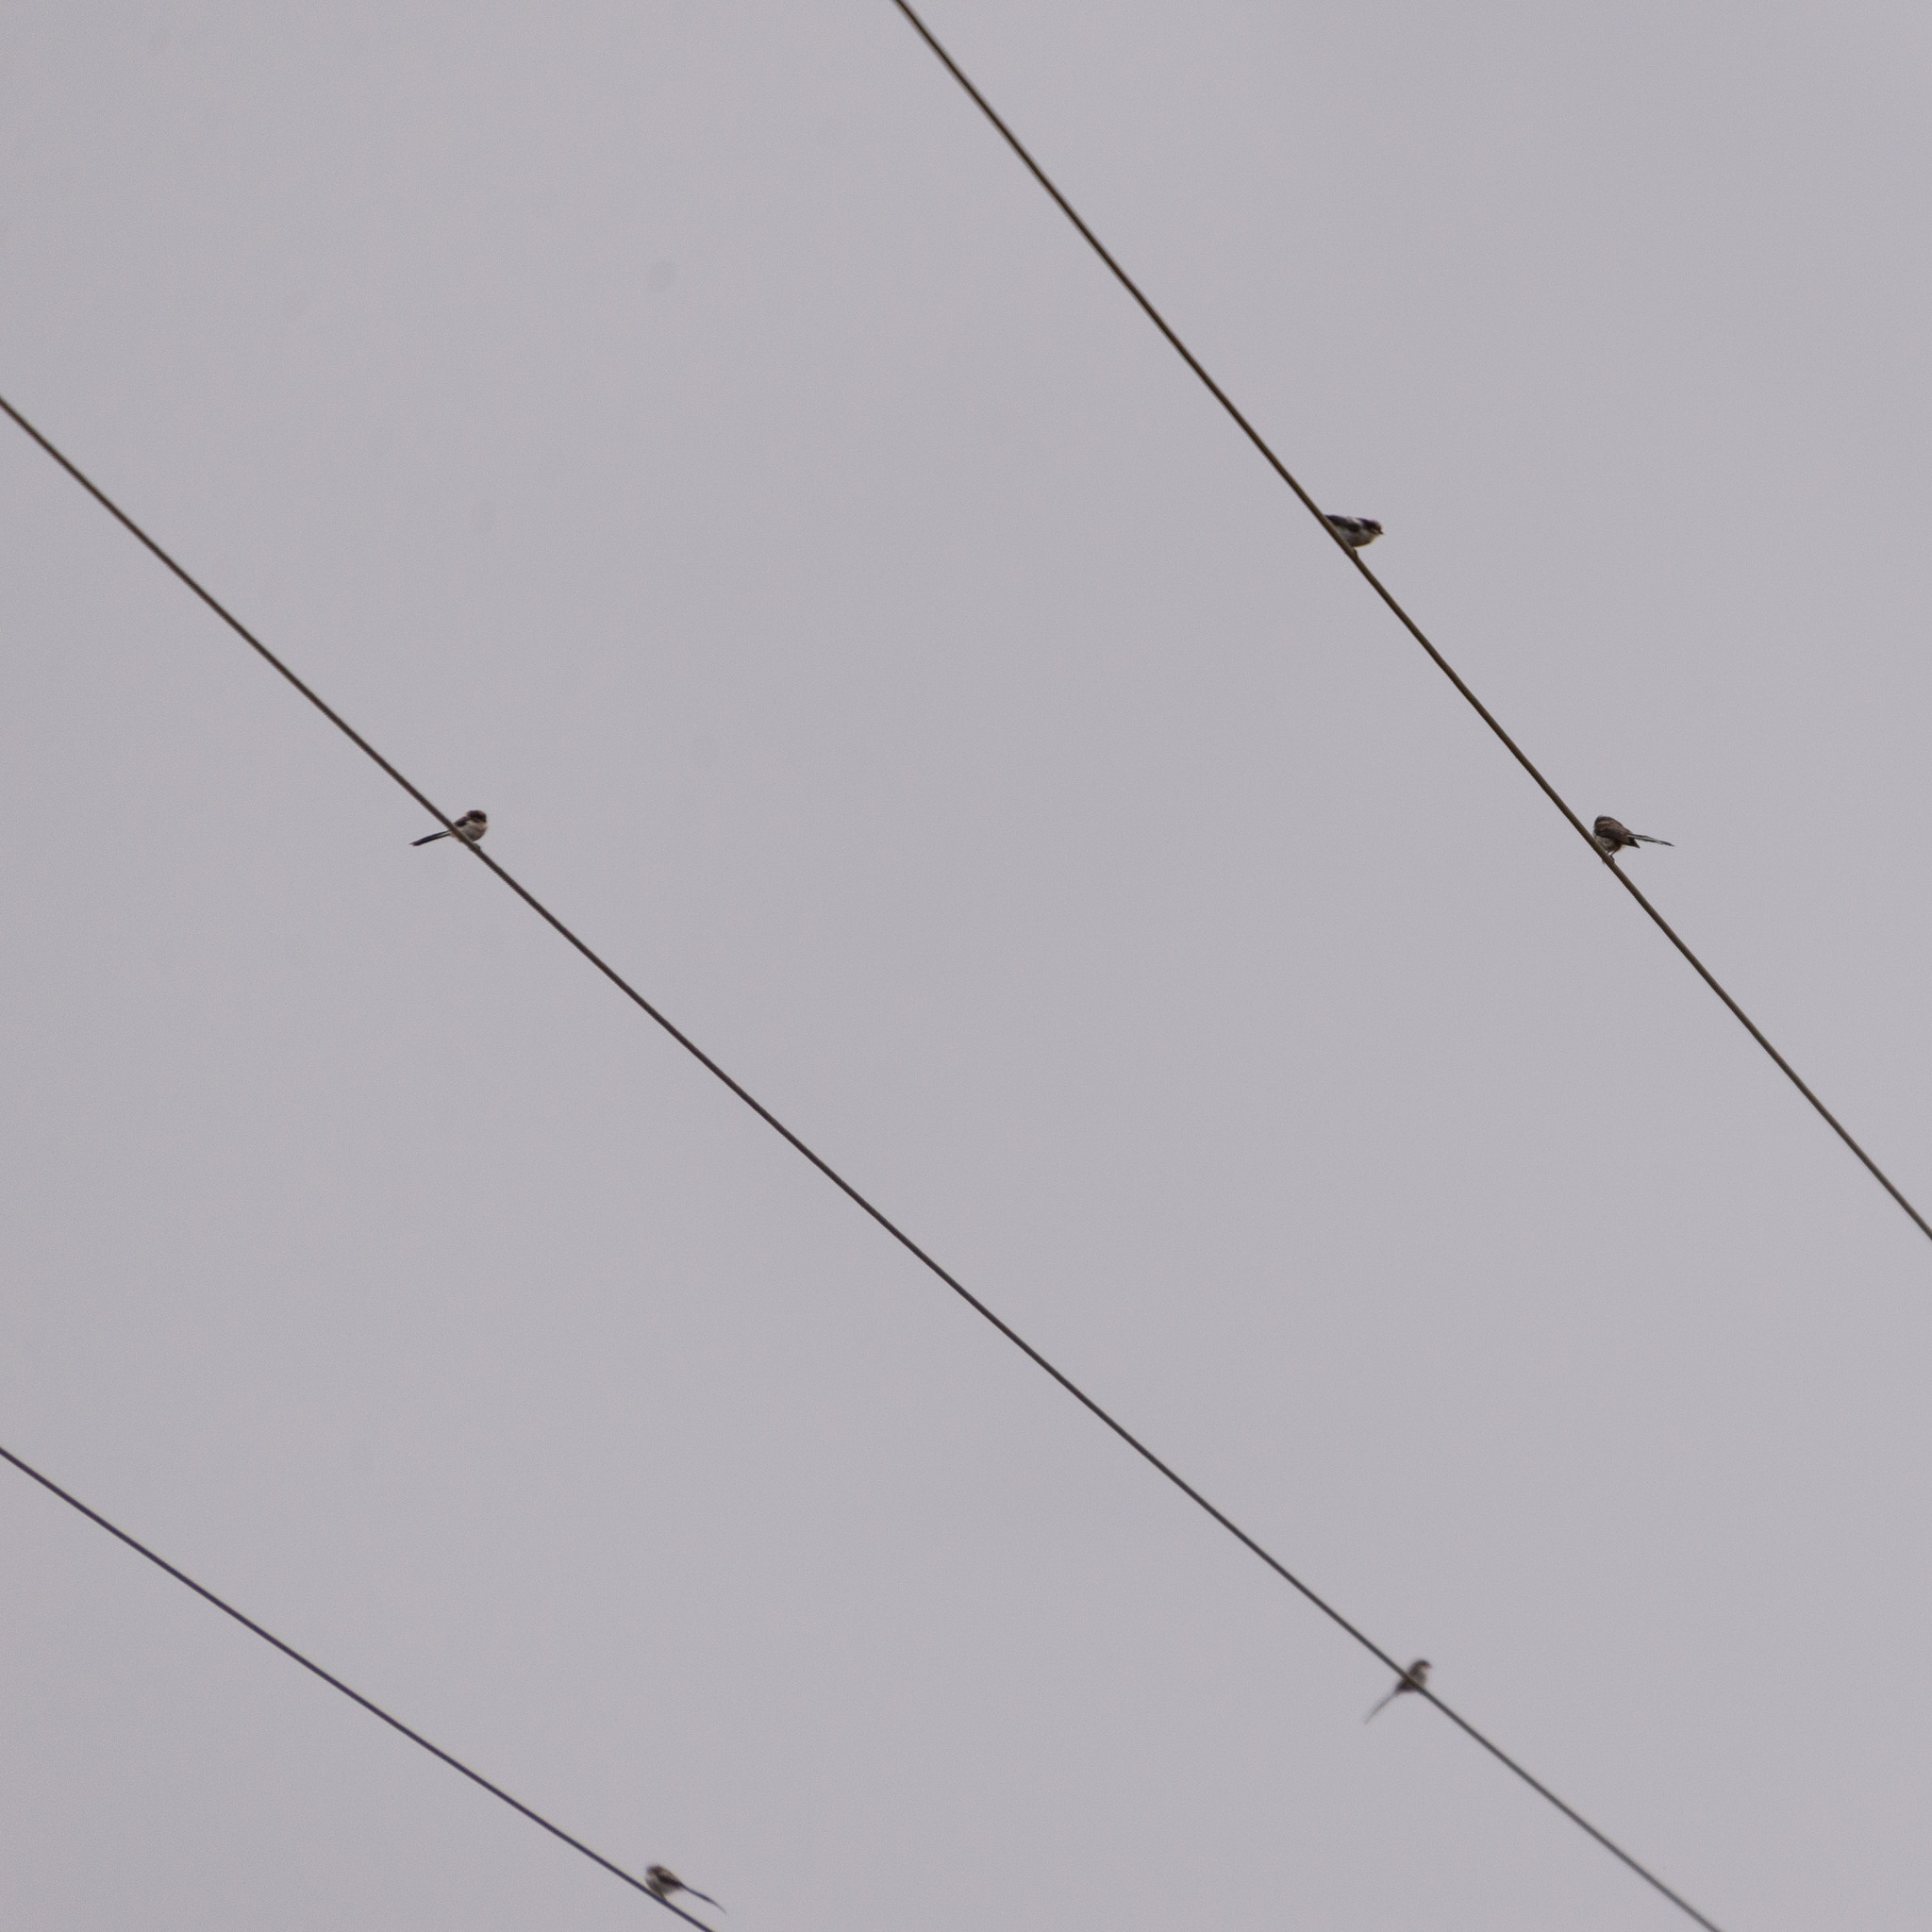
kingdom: Animalia
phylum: Chordata
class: Aves
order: Passeriformes
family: Aegithalidae
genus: Aegithalos
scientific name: Aegithalos caudatus
